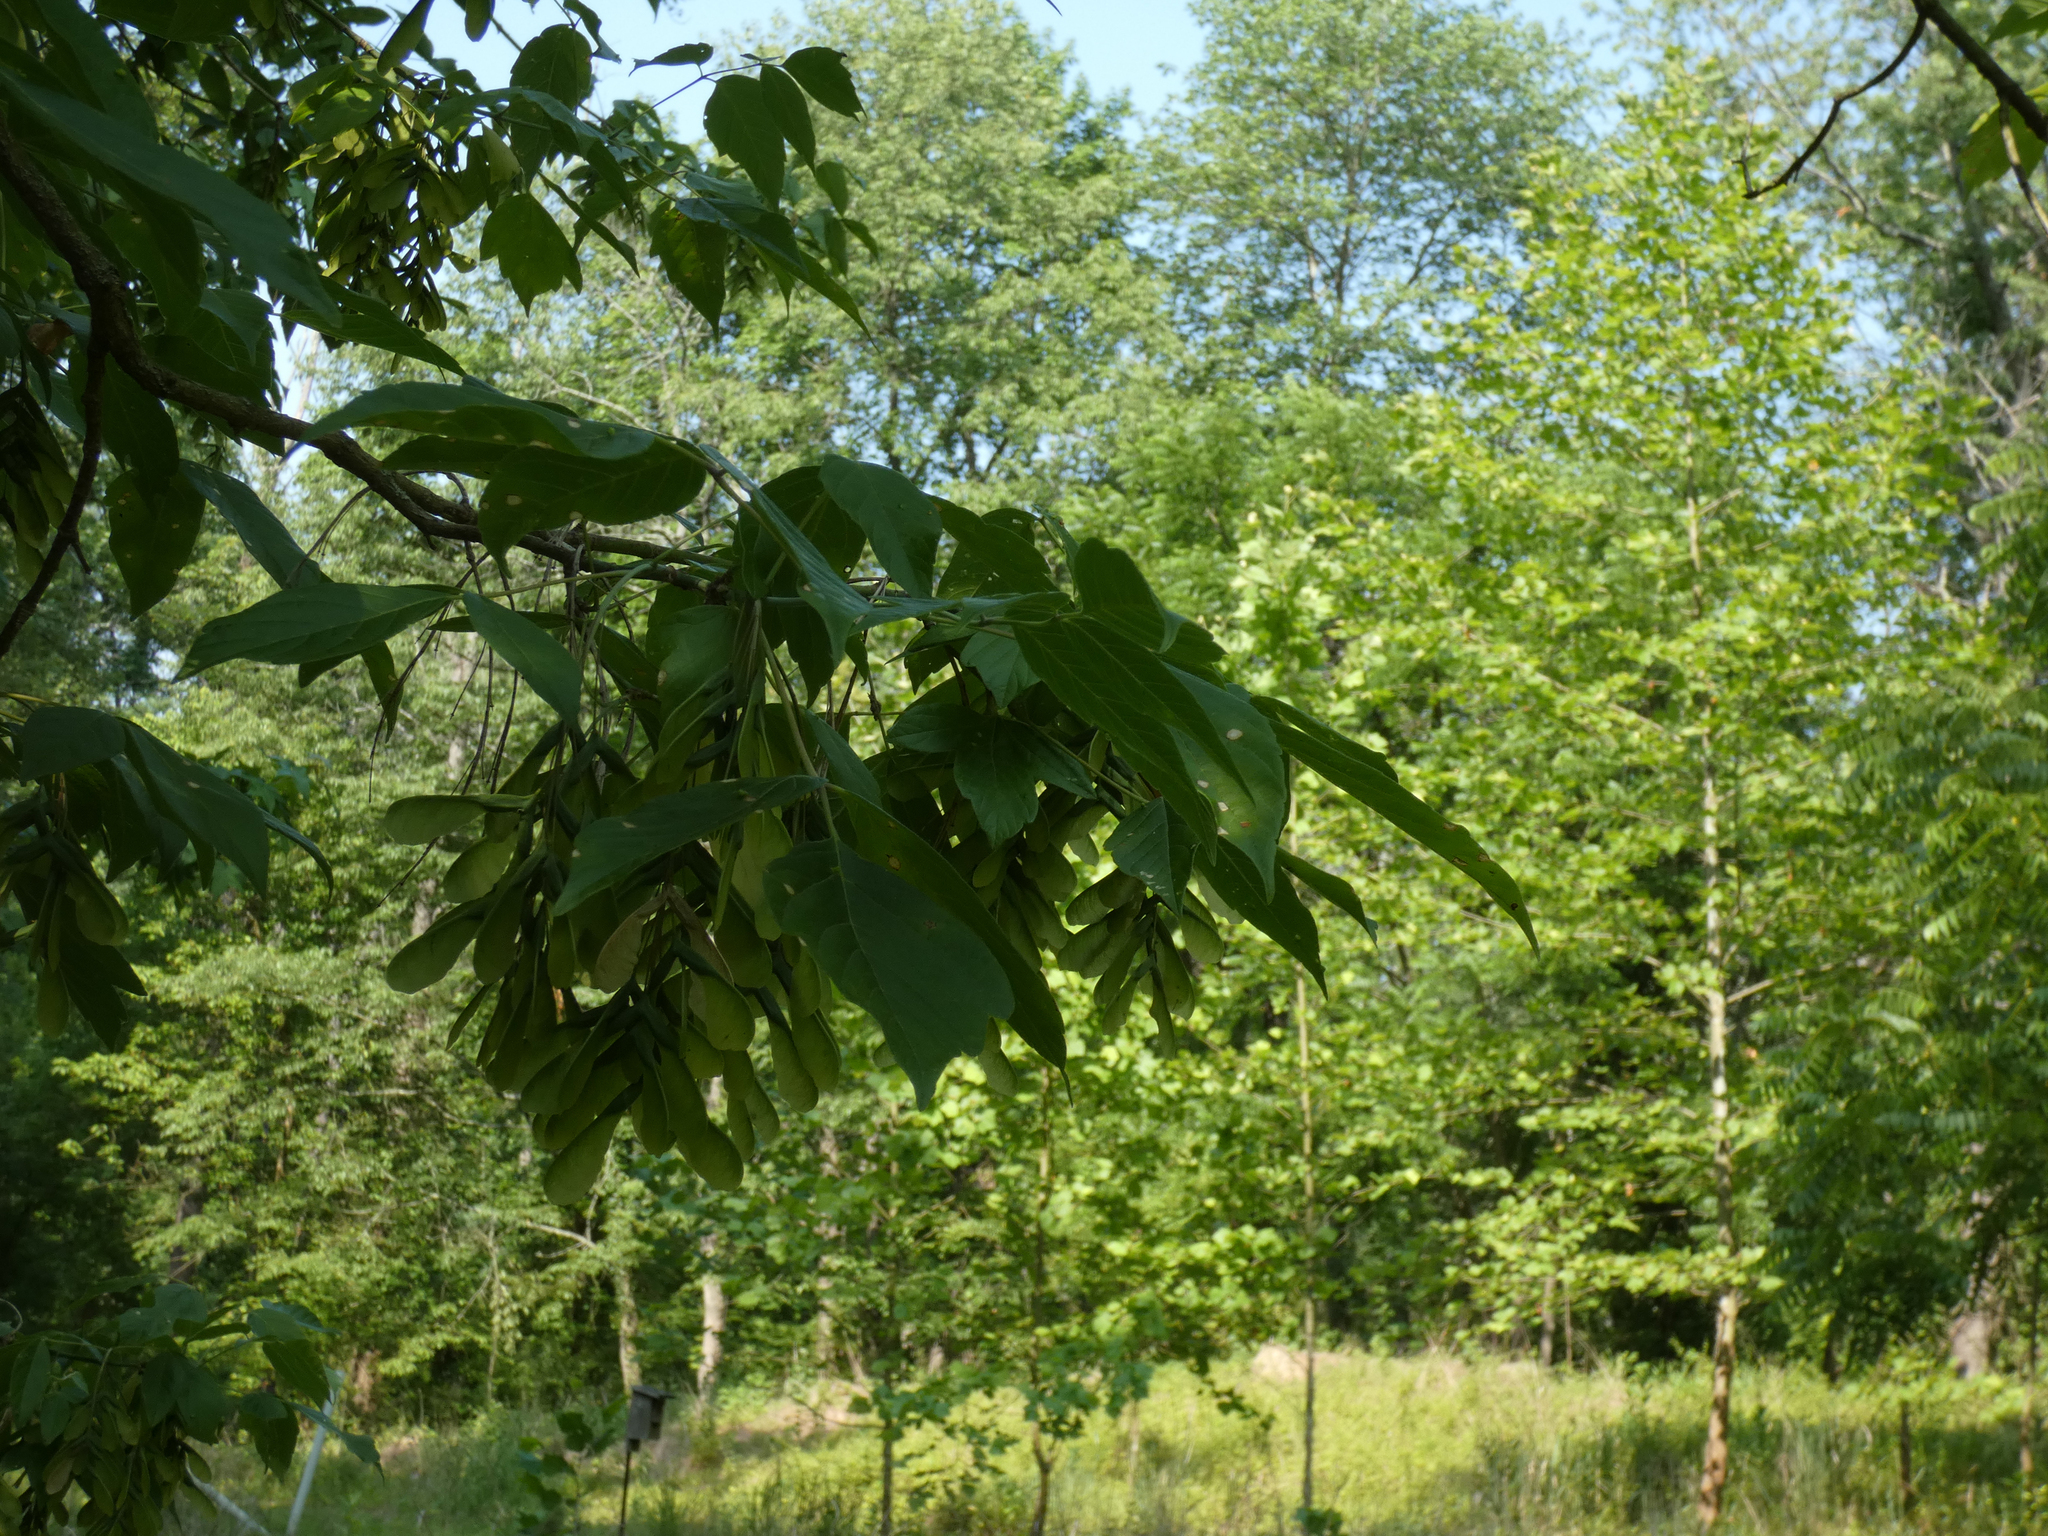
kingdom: Plantae
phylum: Tracheophyta
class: Magnoliopsida
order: Sapindales
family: Sapindaceae
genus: Acer
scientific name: Acer negundo
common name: Ashleaf maple
